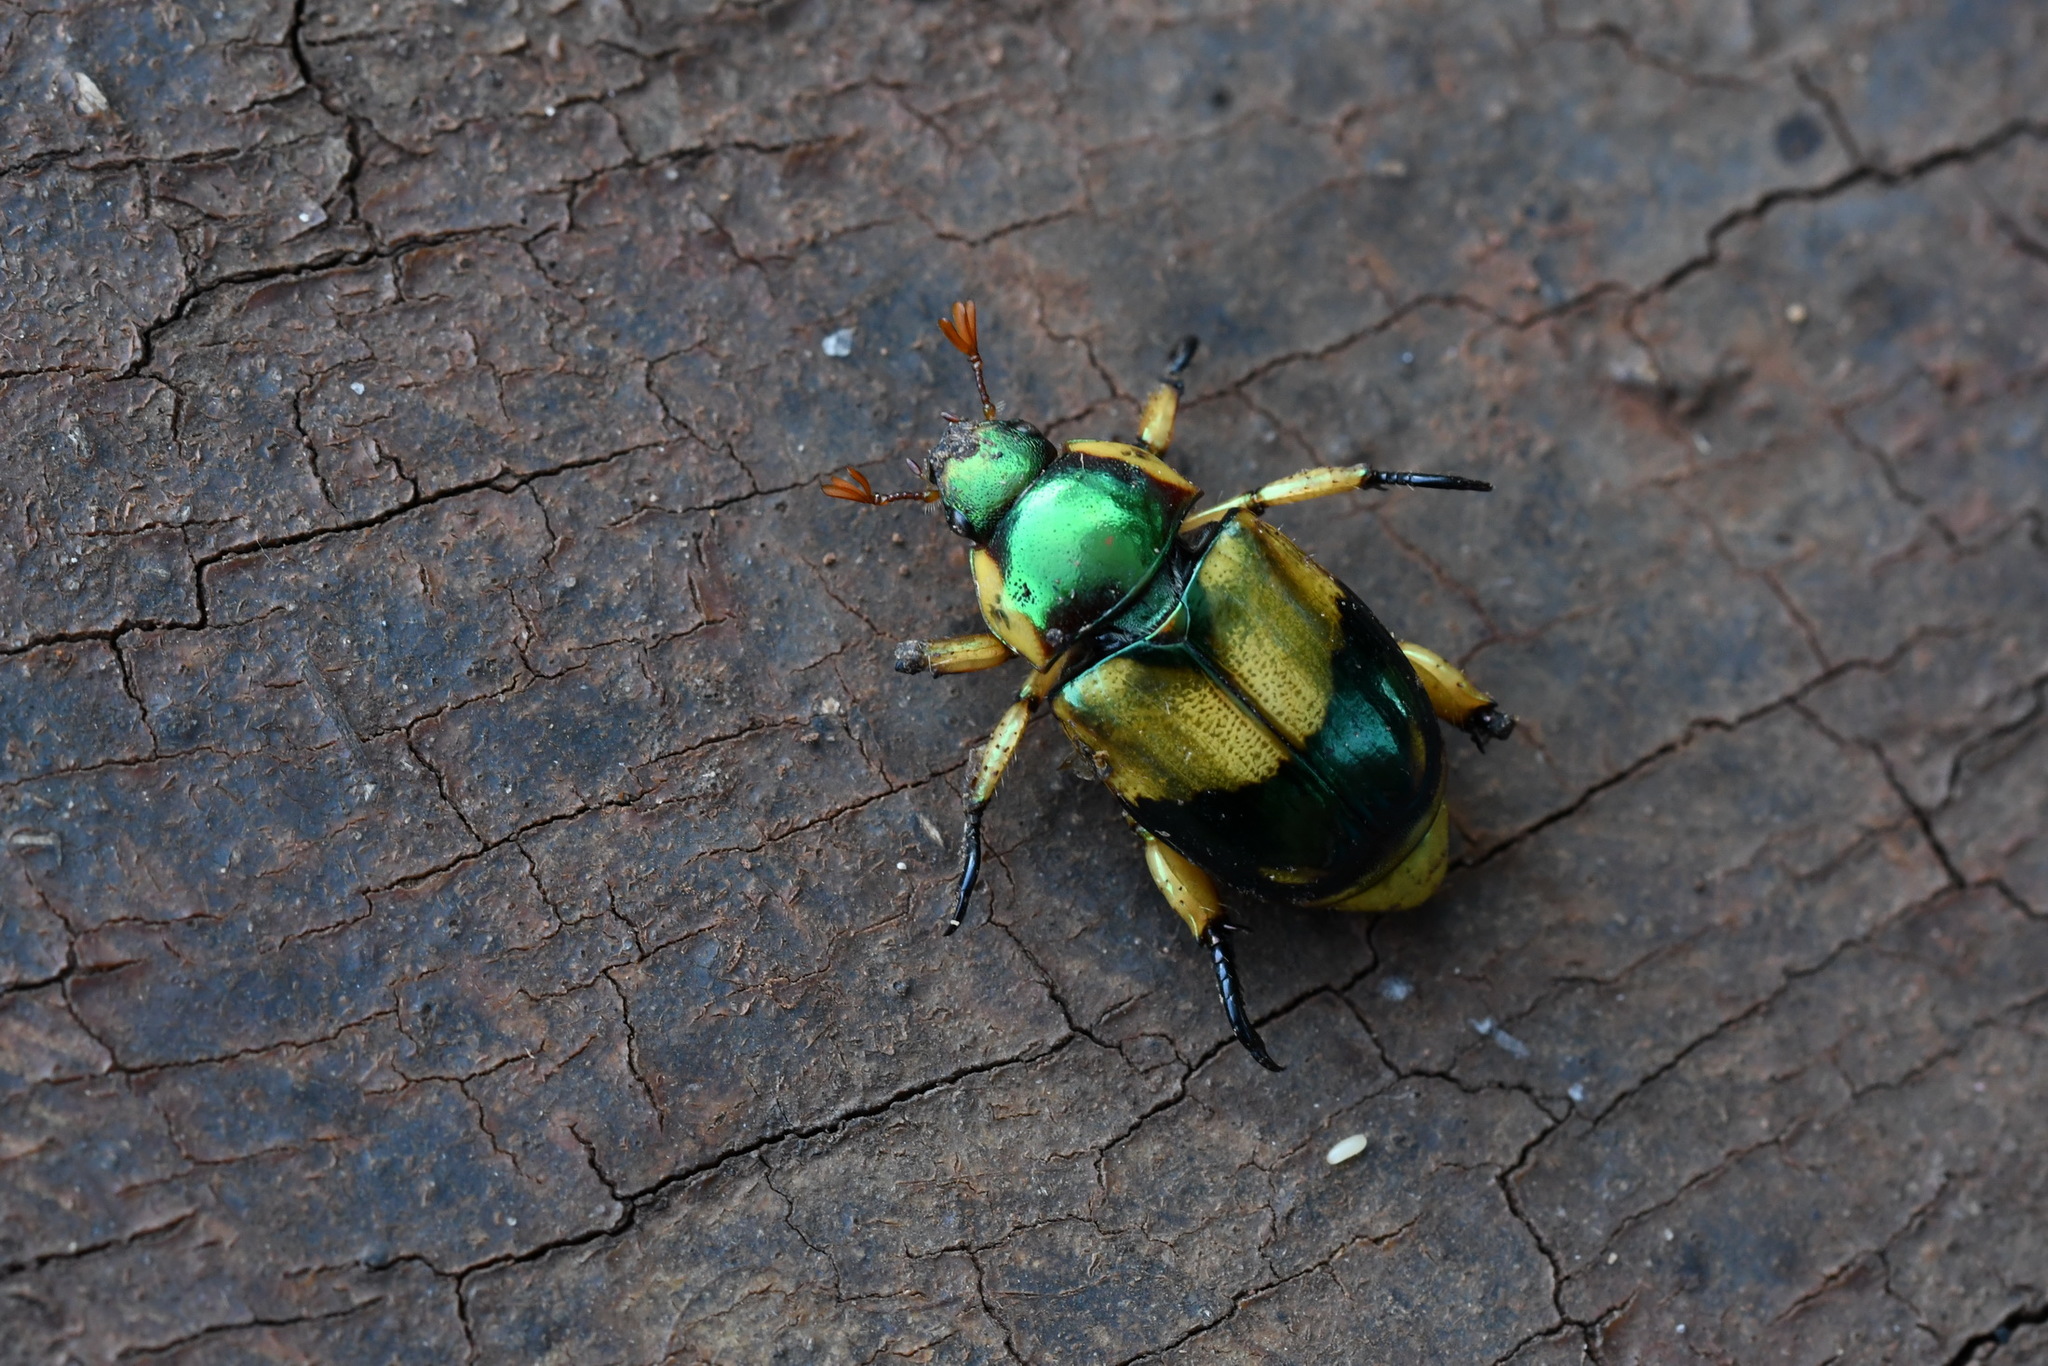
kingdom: Animalia
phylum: Arthropoda
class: Insecta
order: Coleoptera
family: Scarabaeidae
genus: Pelidnota
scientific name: Pelidnota pulchella
